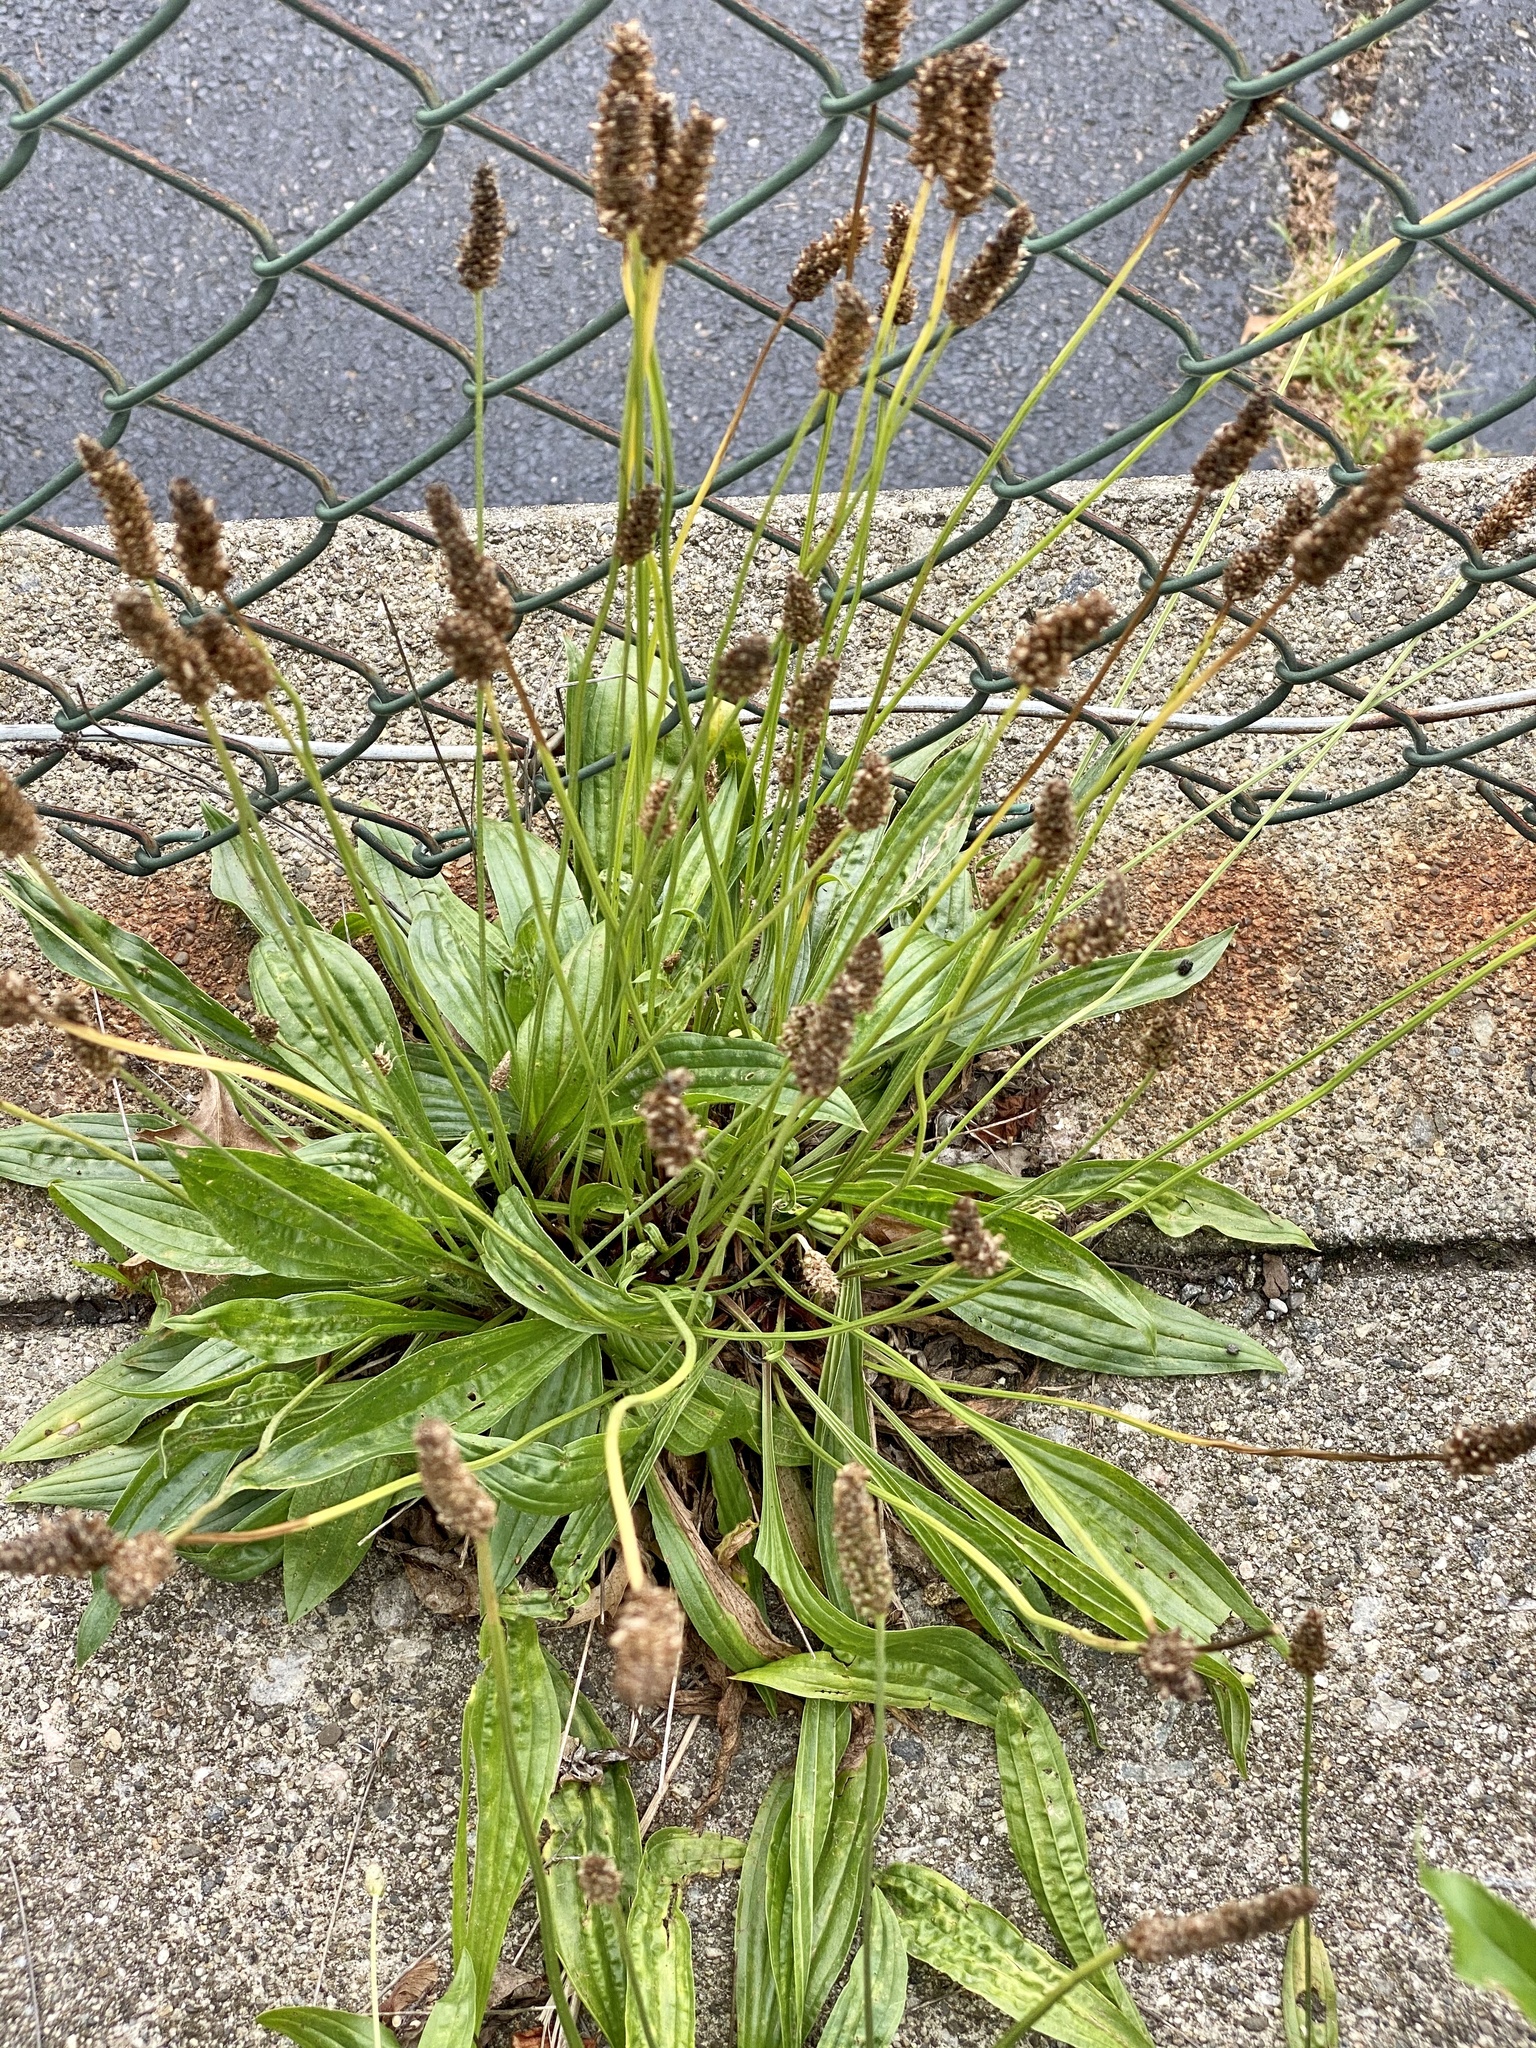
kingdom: Plantae
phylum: Tracheophyta
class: Magnoliopsida
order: Lamiales
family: Plantaginaceae
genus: Plantago
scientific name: Plantago lanceolata
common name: Ribwort plantain
